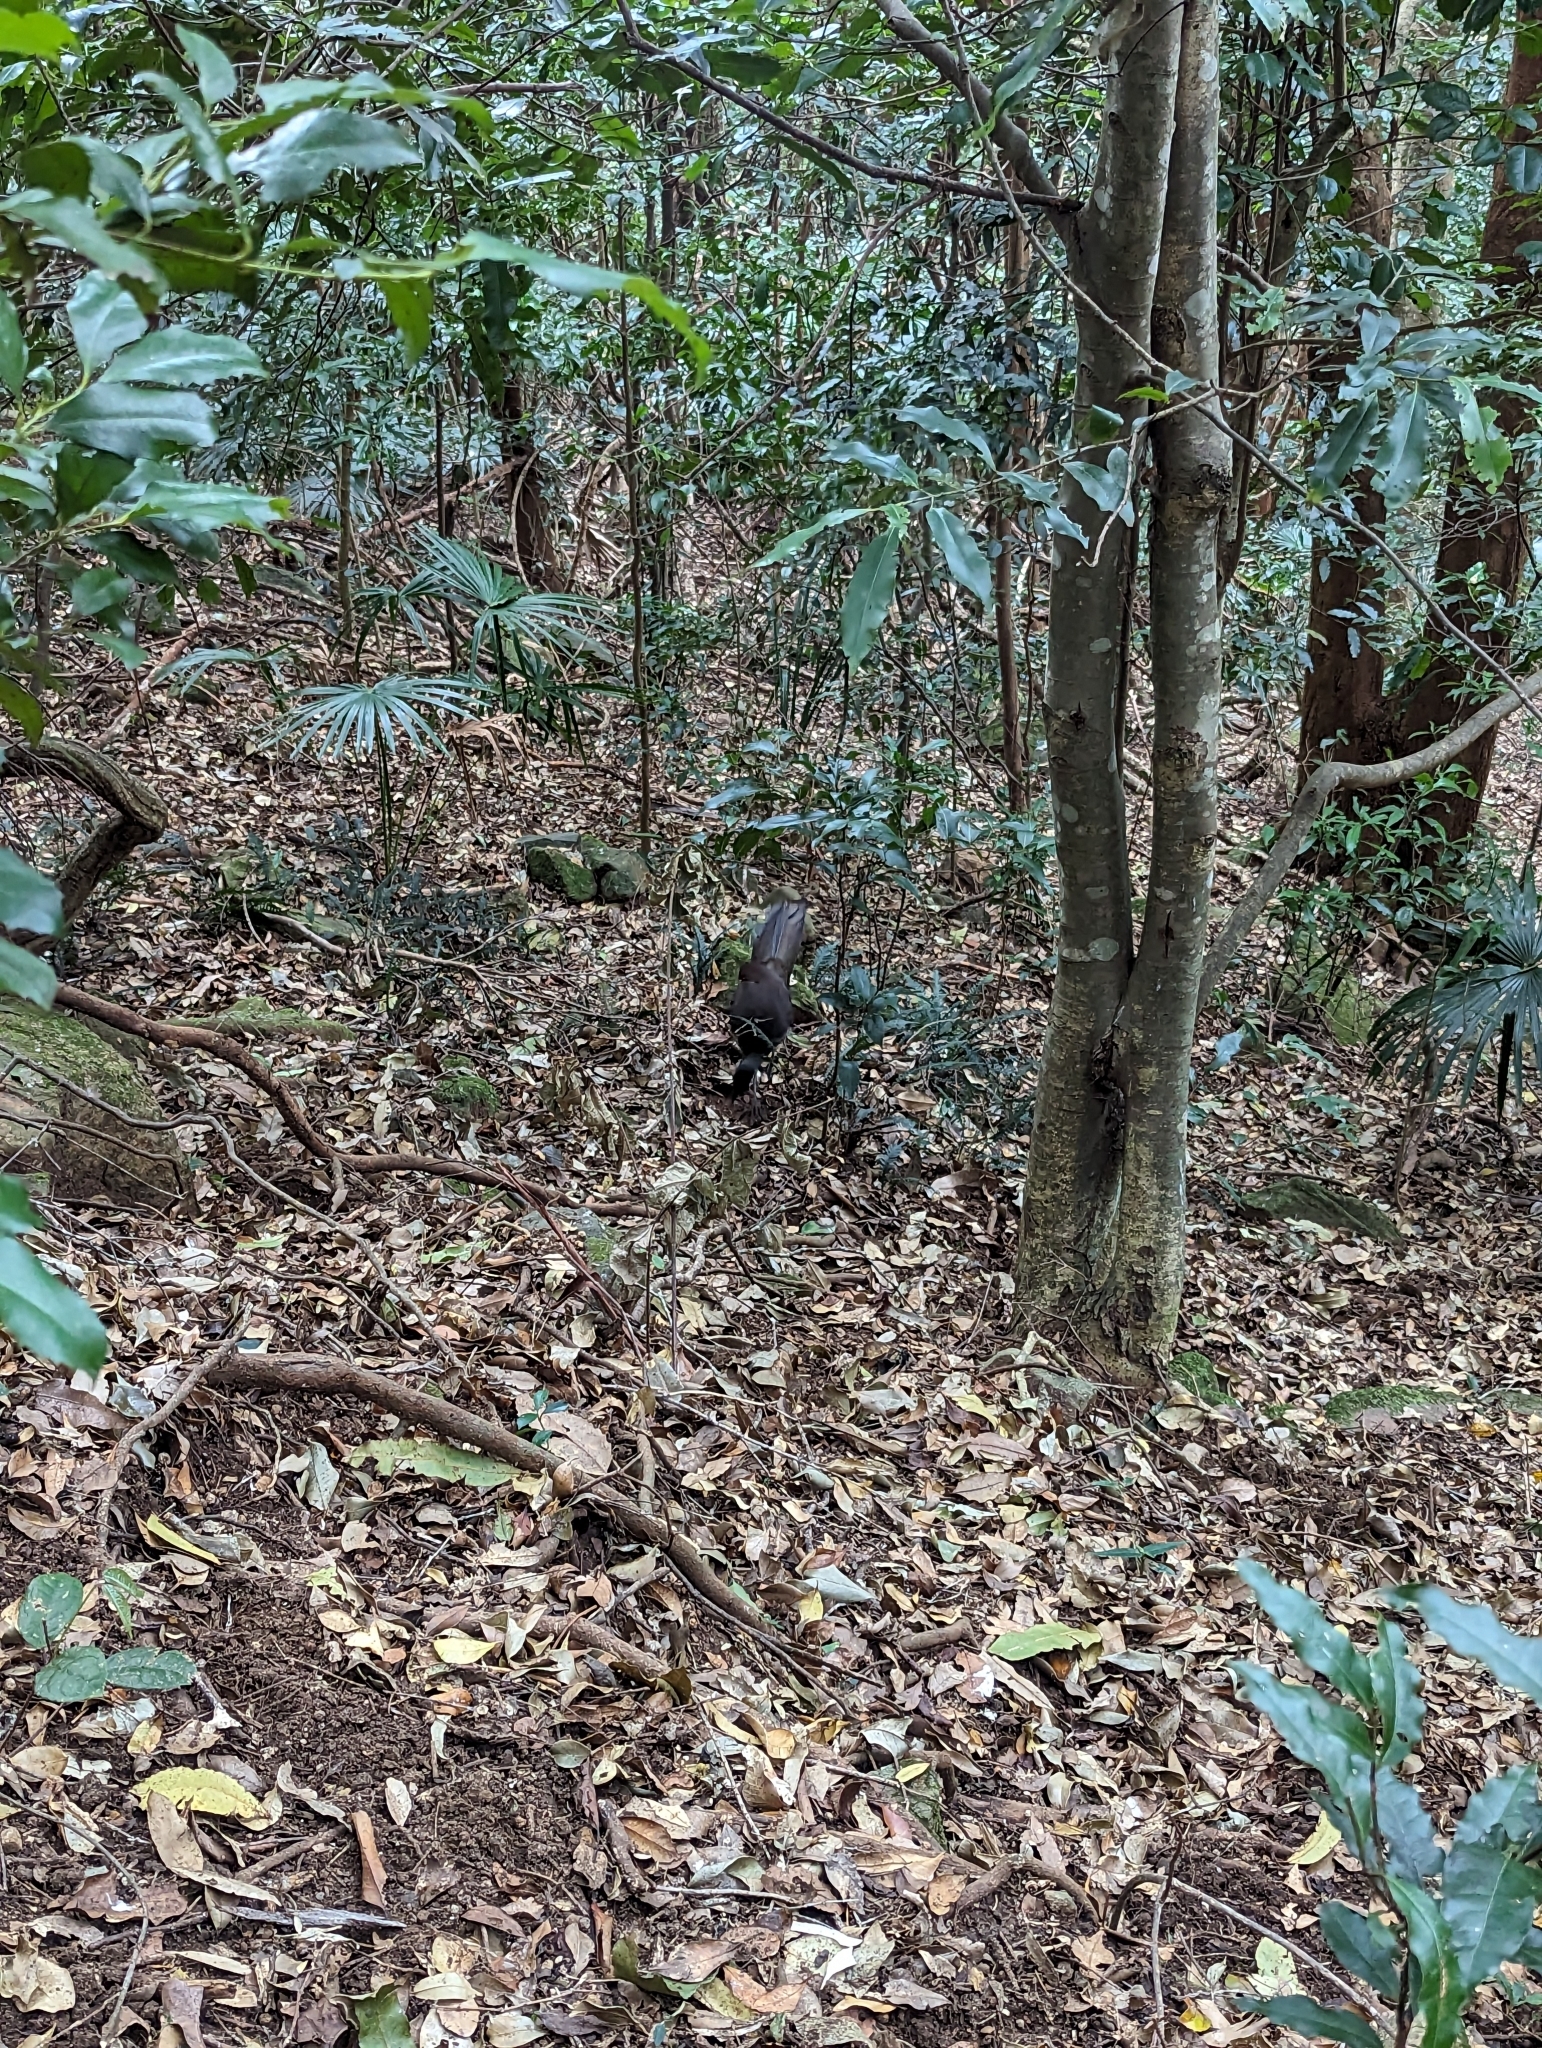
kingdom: Animalia
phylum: Chordata
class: Aves
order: Passeriformes
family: Menuridae
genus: Menura
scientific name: Menura novaehollandiae
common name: Superb lyrebird
